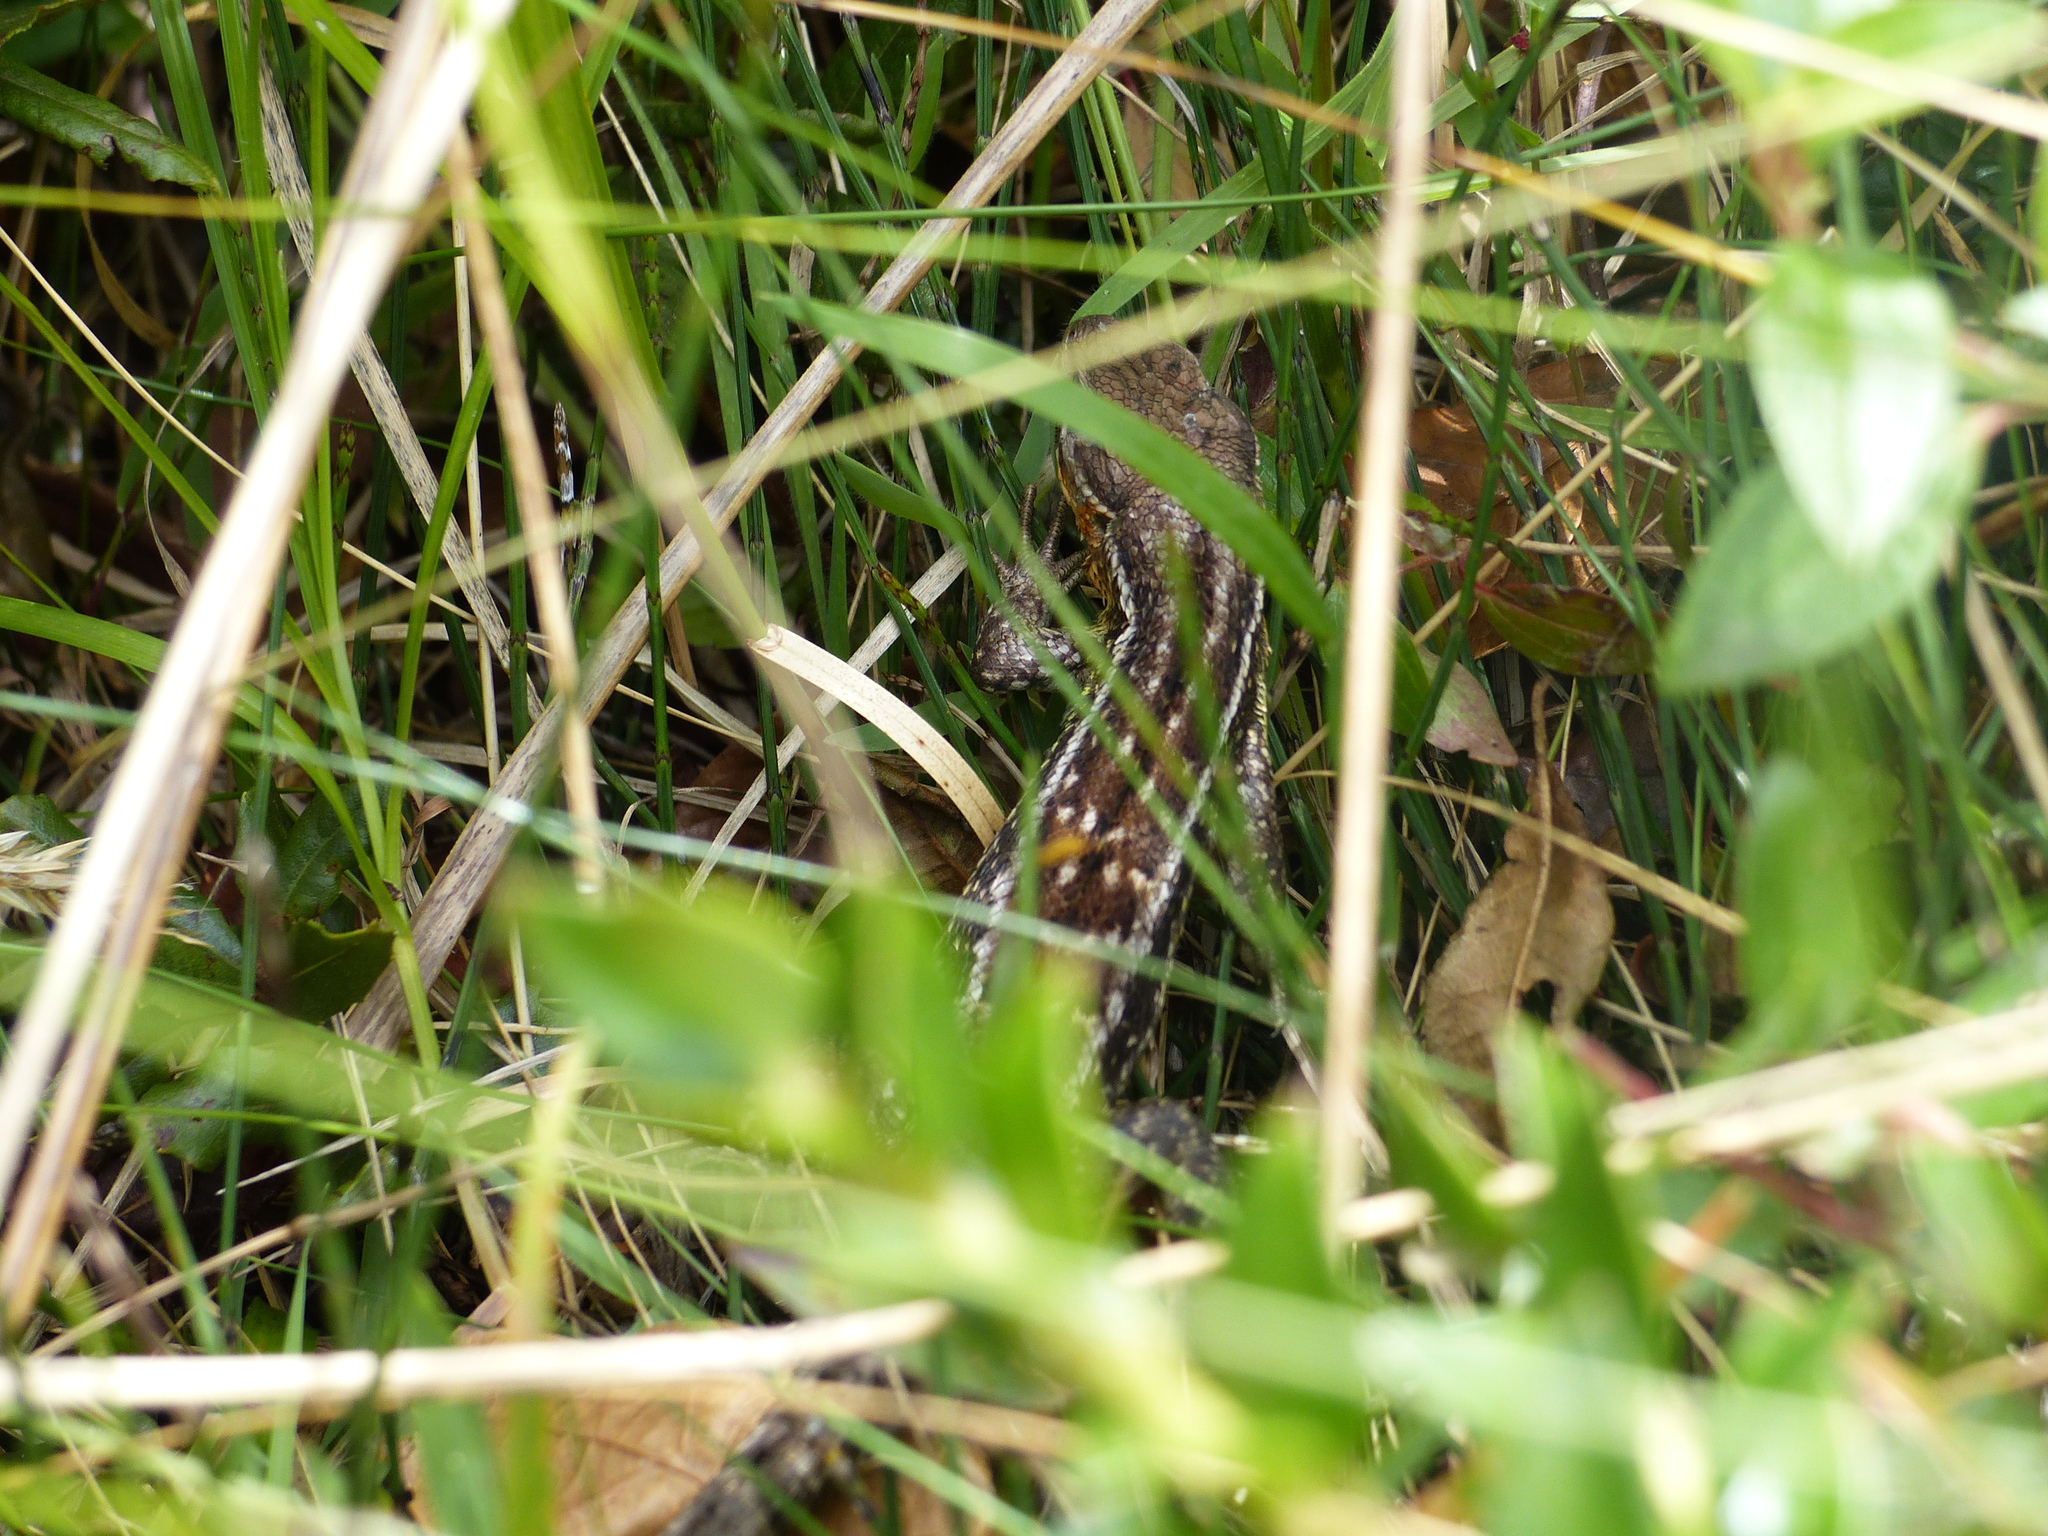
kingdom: Animalia
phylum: Chordata
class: Squamata
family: Tropiduridae
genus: Stenocercus
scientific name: Stenocercus trachycephalus
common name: Duméril's whorltail iguana
